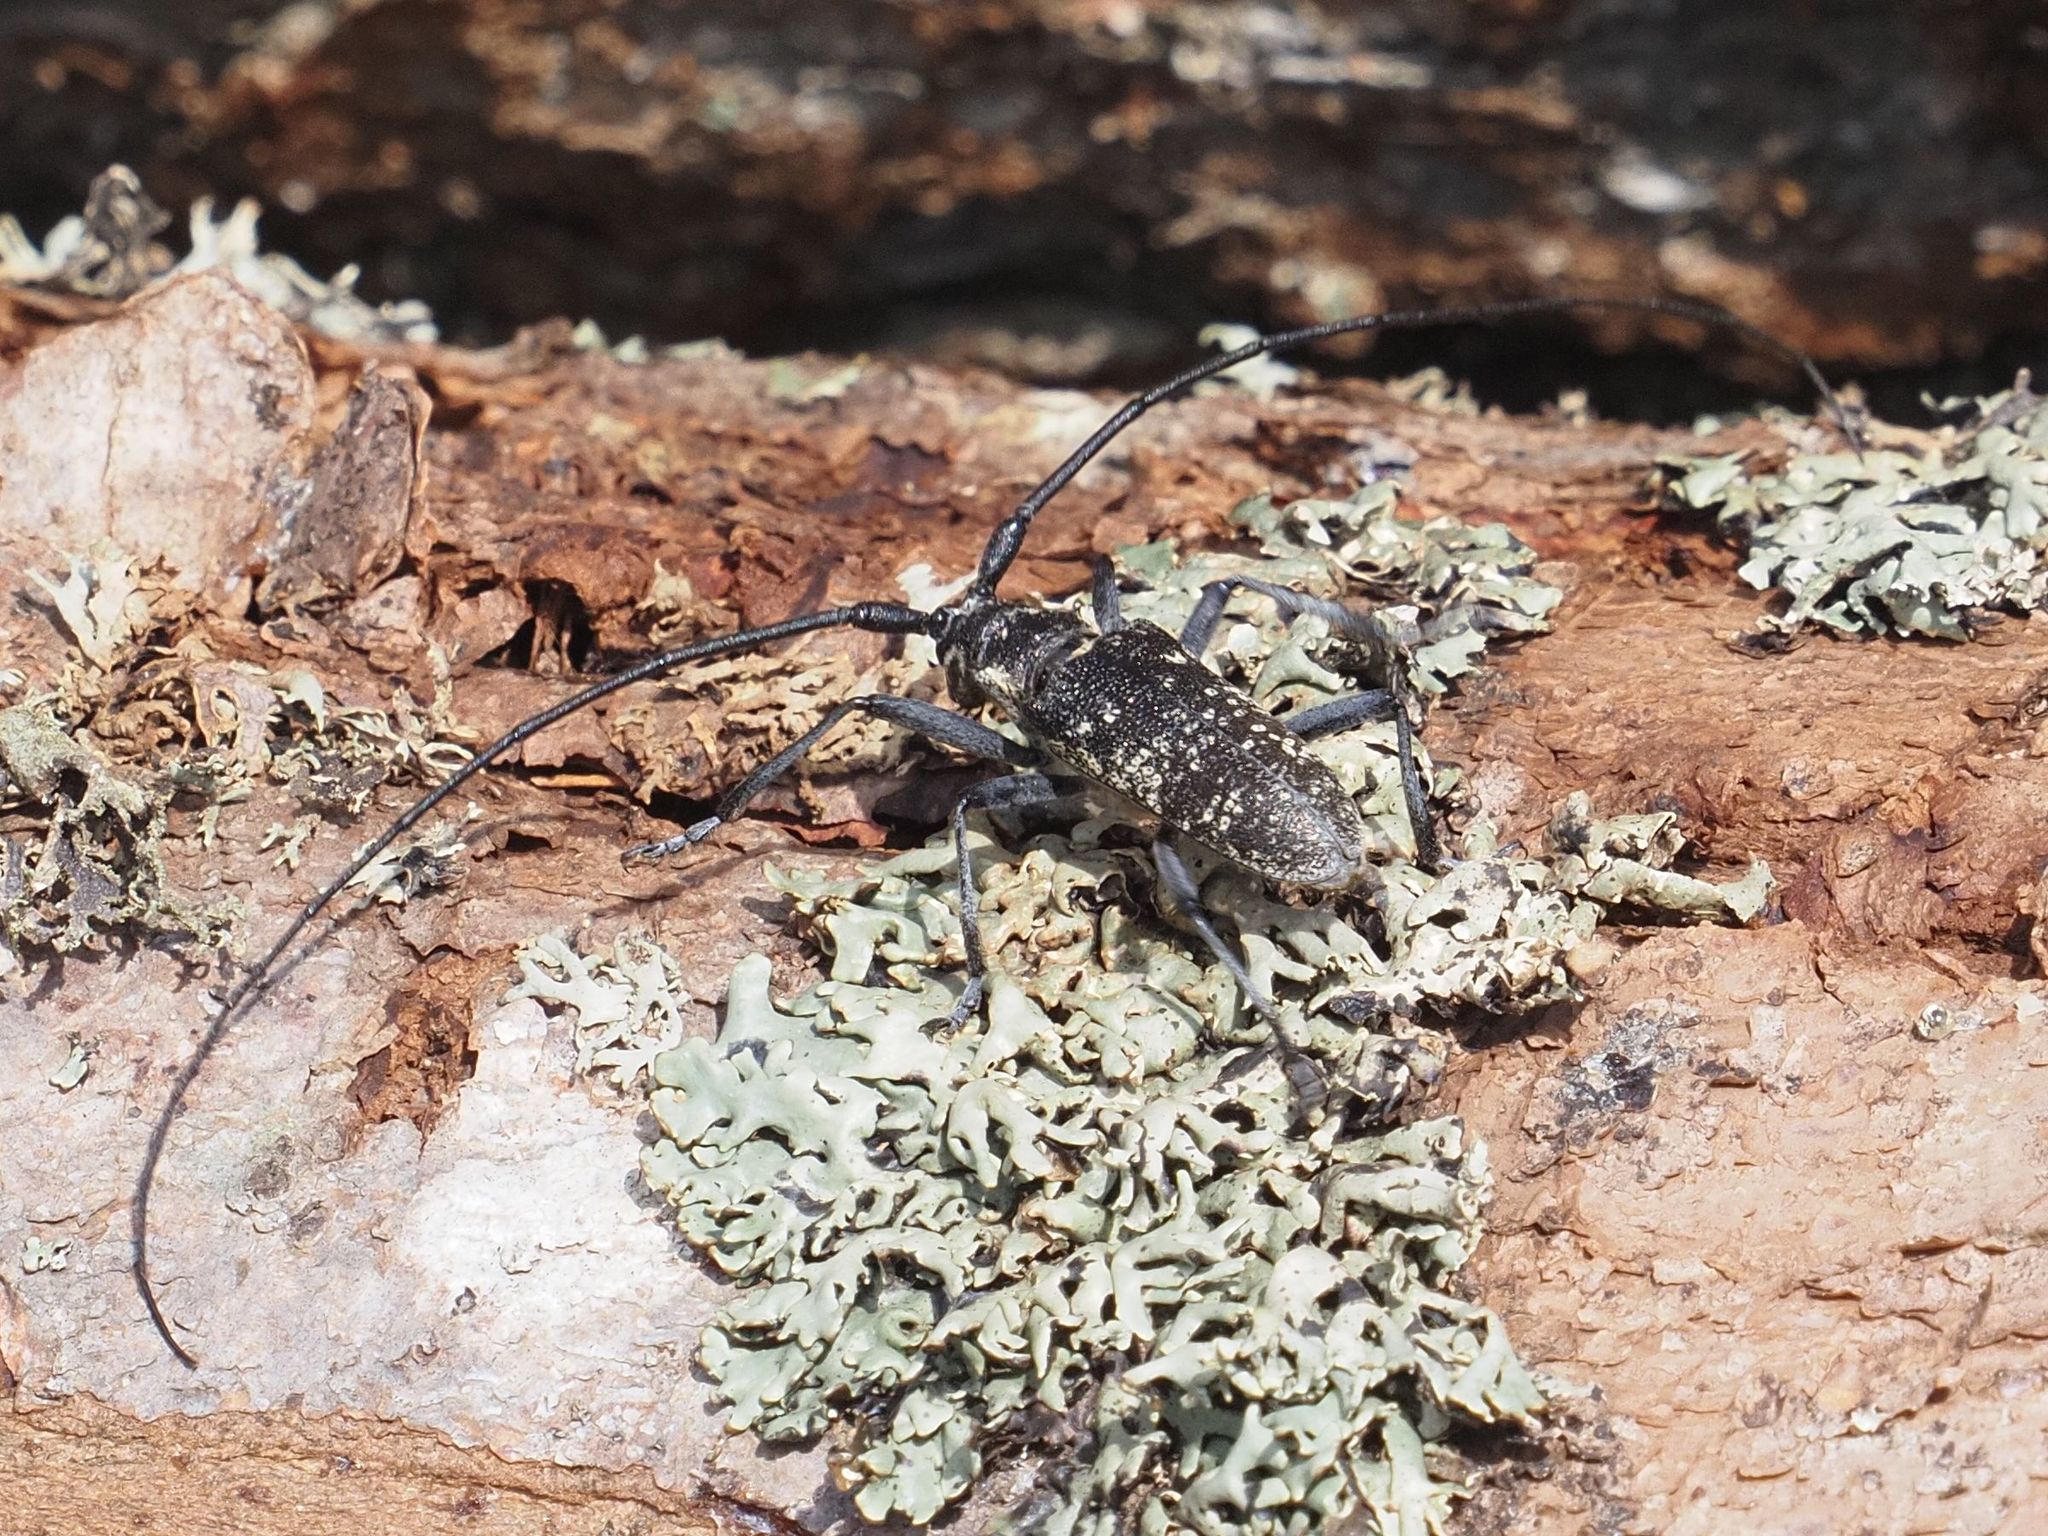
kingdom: Animalia
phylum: Arthropoda
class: Insecta
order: Coleoptera
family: Cerambycidae
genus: Monochamus
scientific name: Monochamus sutor
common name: Pine sawyer
